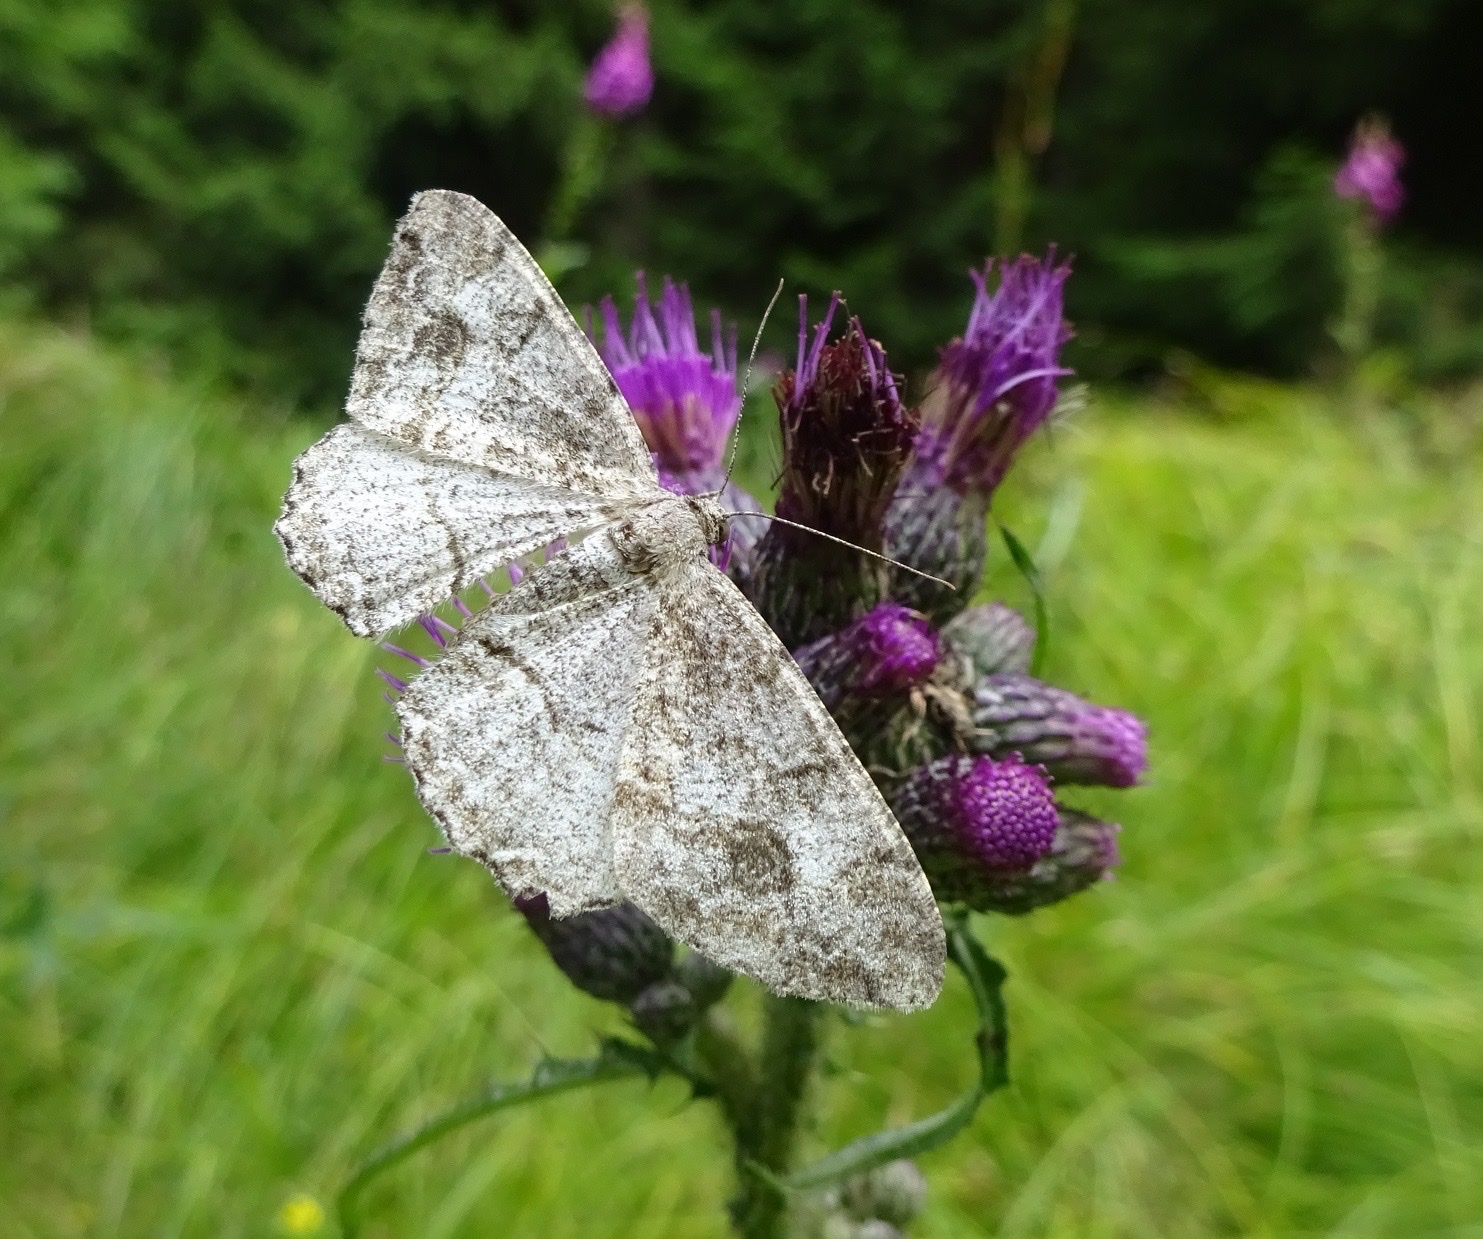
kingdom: Animalia
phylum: Arthropoda
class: Insecta
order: Lepidoptera
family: Geometridae
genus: Alcis
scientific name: Alcis repandata
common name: Mottled beauty
